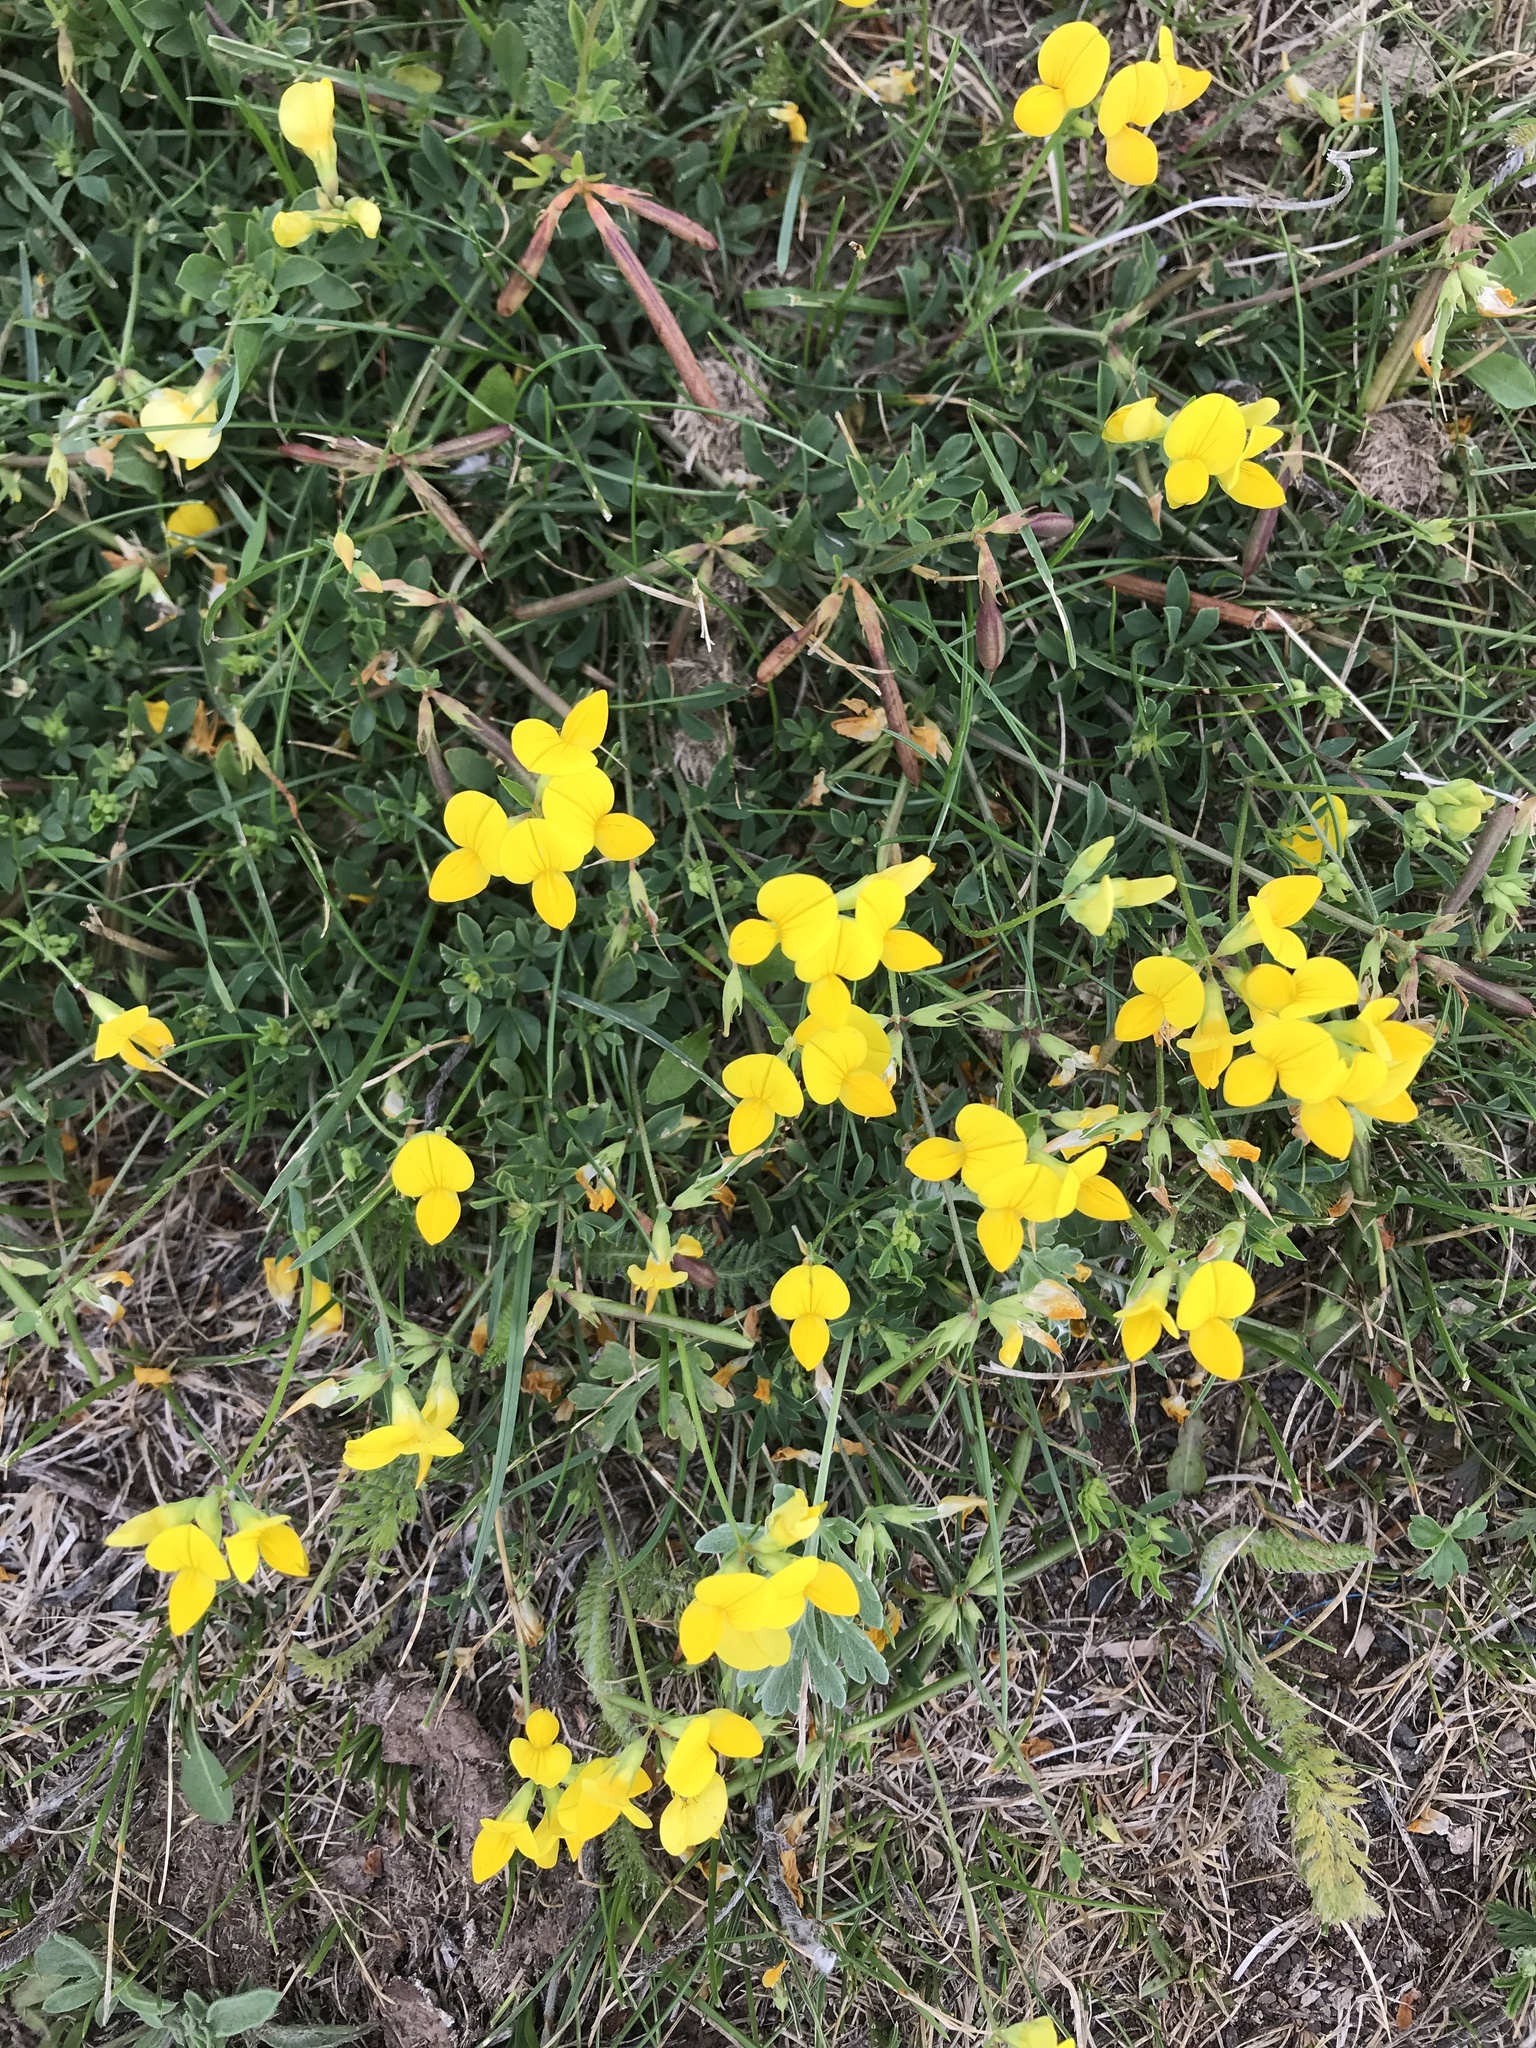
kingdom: Plantae
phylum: Tracheophyta
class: Magnoliopsida
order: Fabales
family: Fabaceae
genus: Lotus
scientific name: Lotus corniculatus
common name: Common bird's-foot-trefoil
